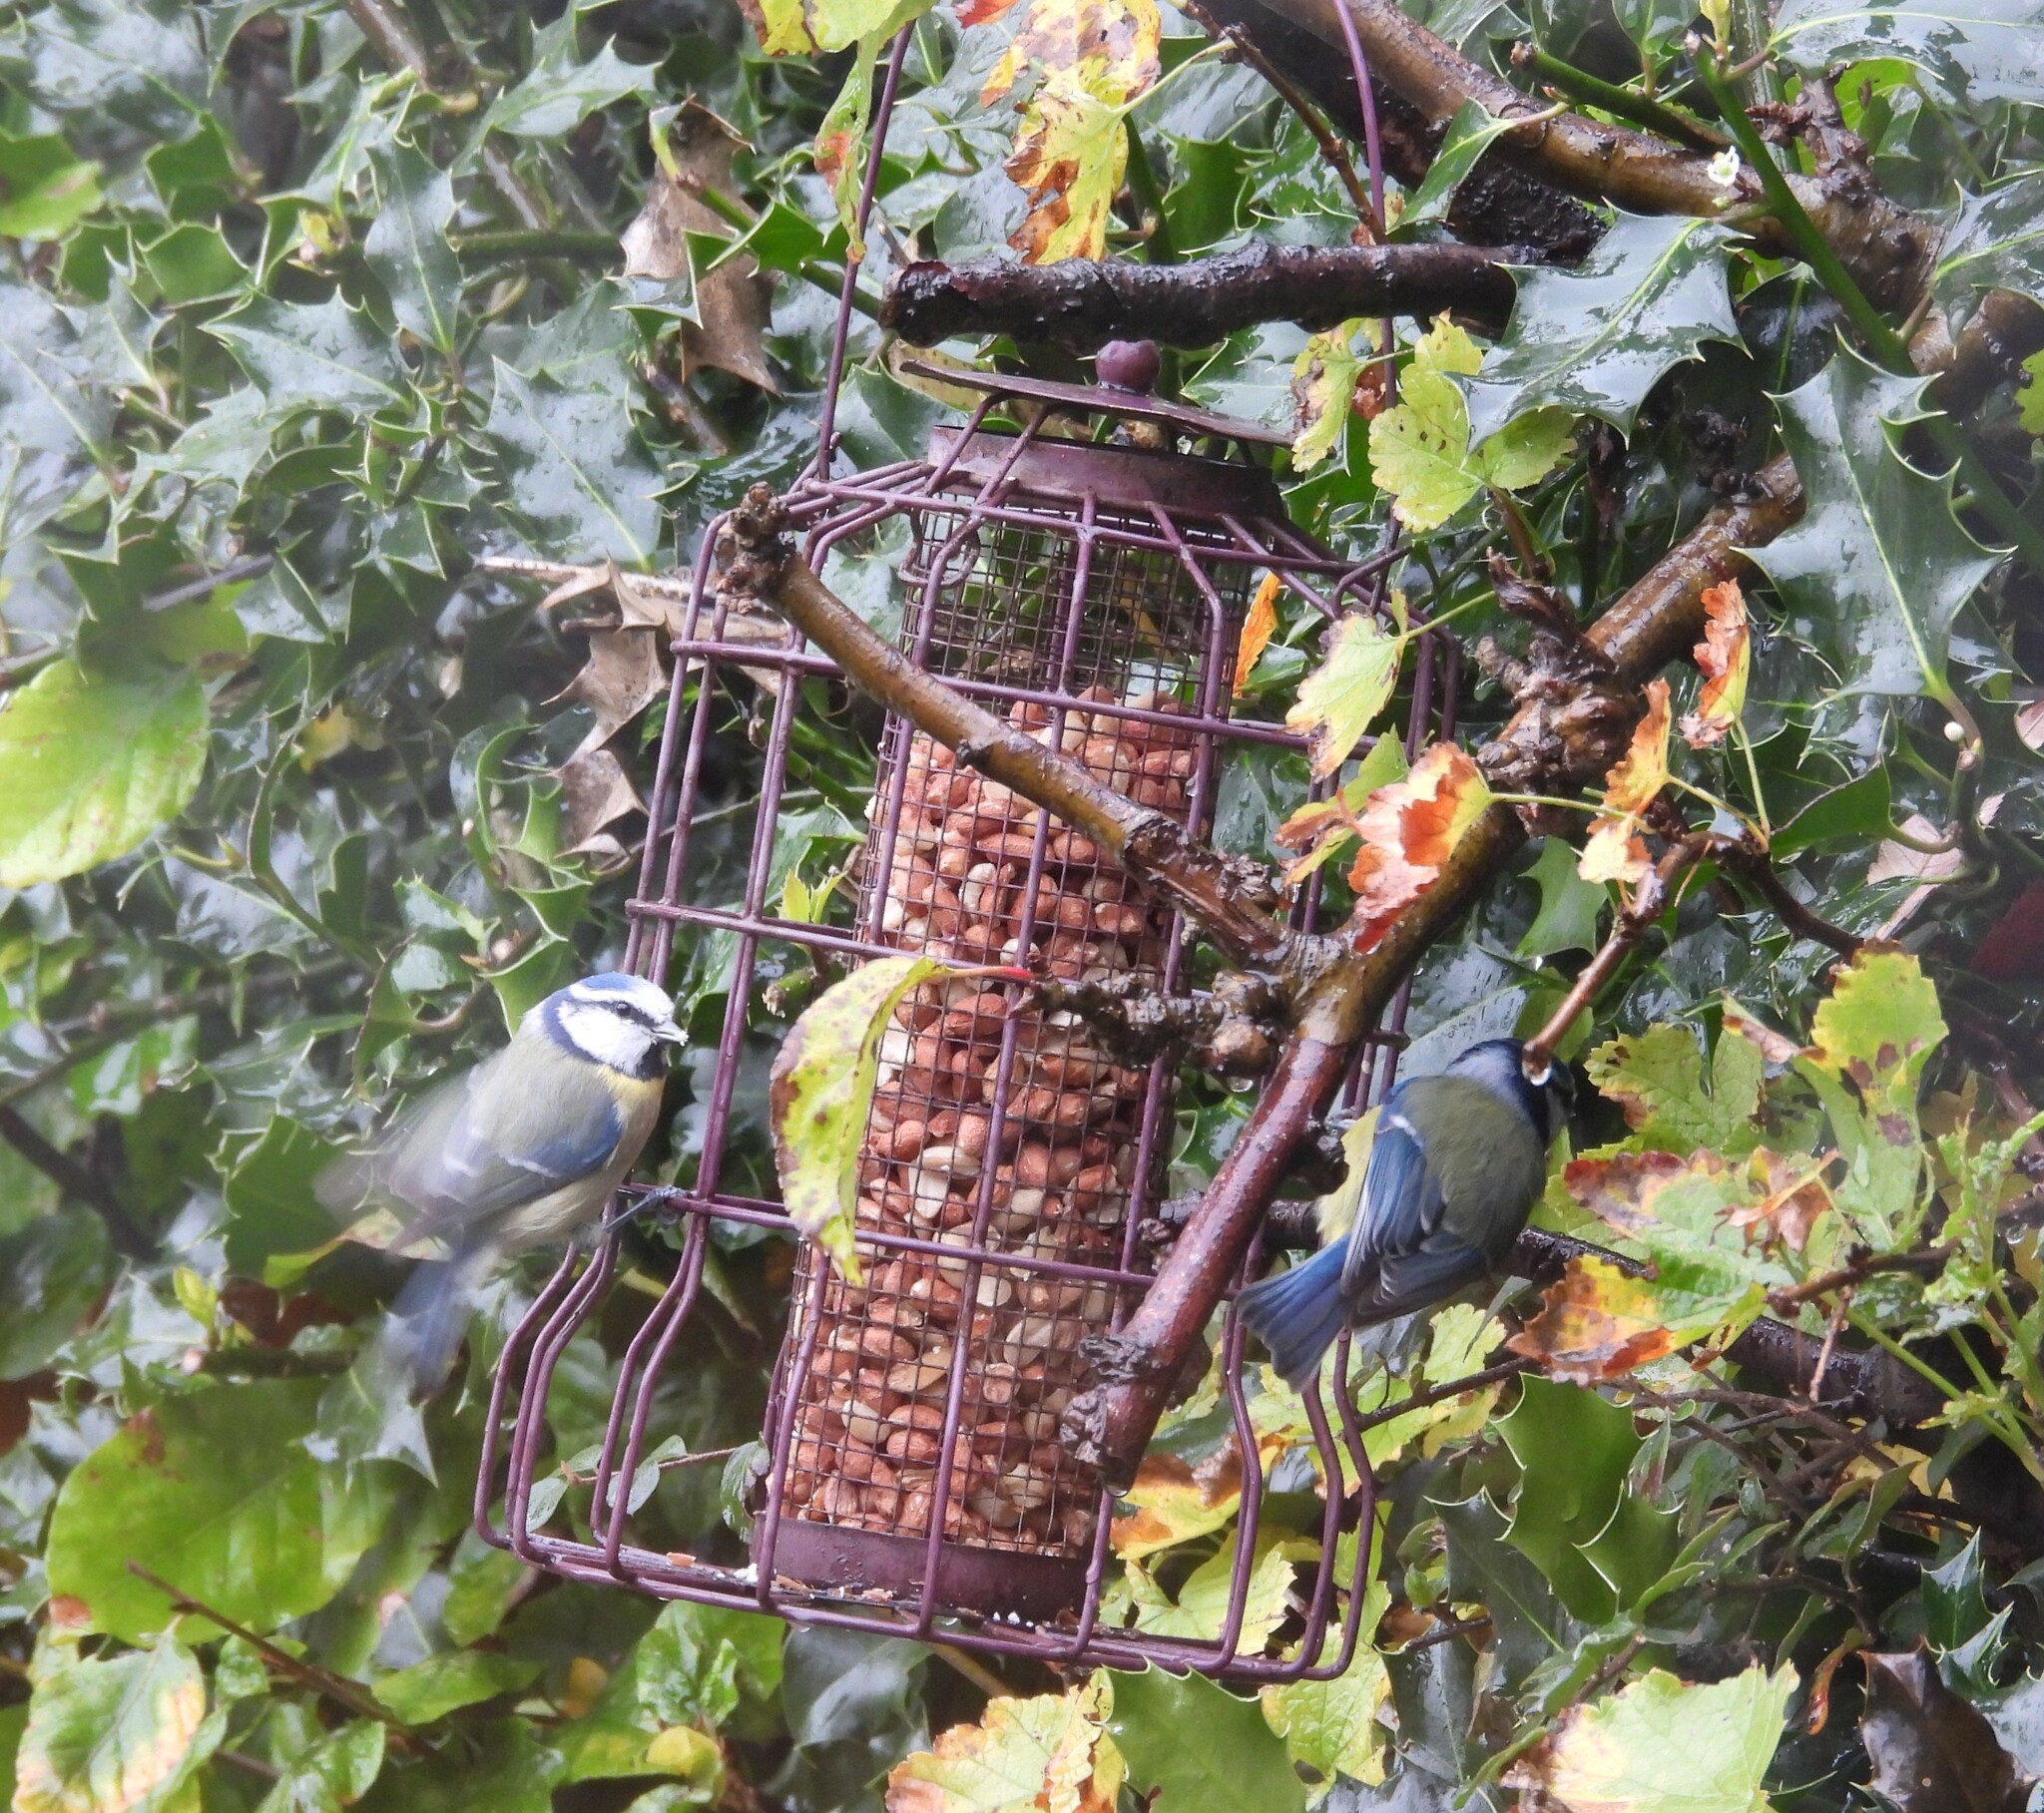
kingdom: Animalia
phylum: Chordata
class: Aves
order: Passeriformes
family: Paridae
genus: Cyanistes
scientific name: Cyanistes caeruleus
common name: Eurasian blue tit
